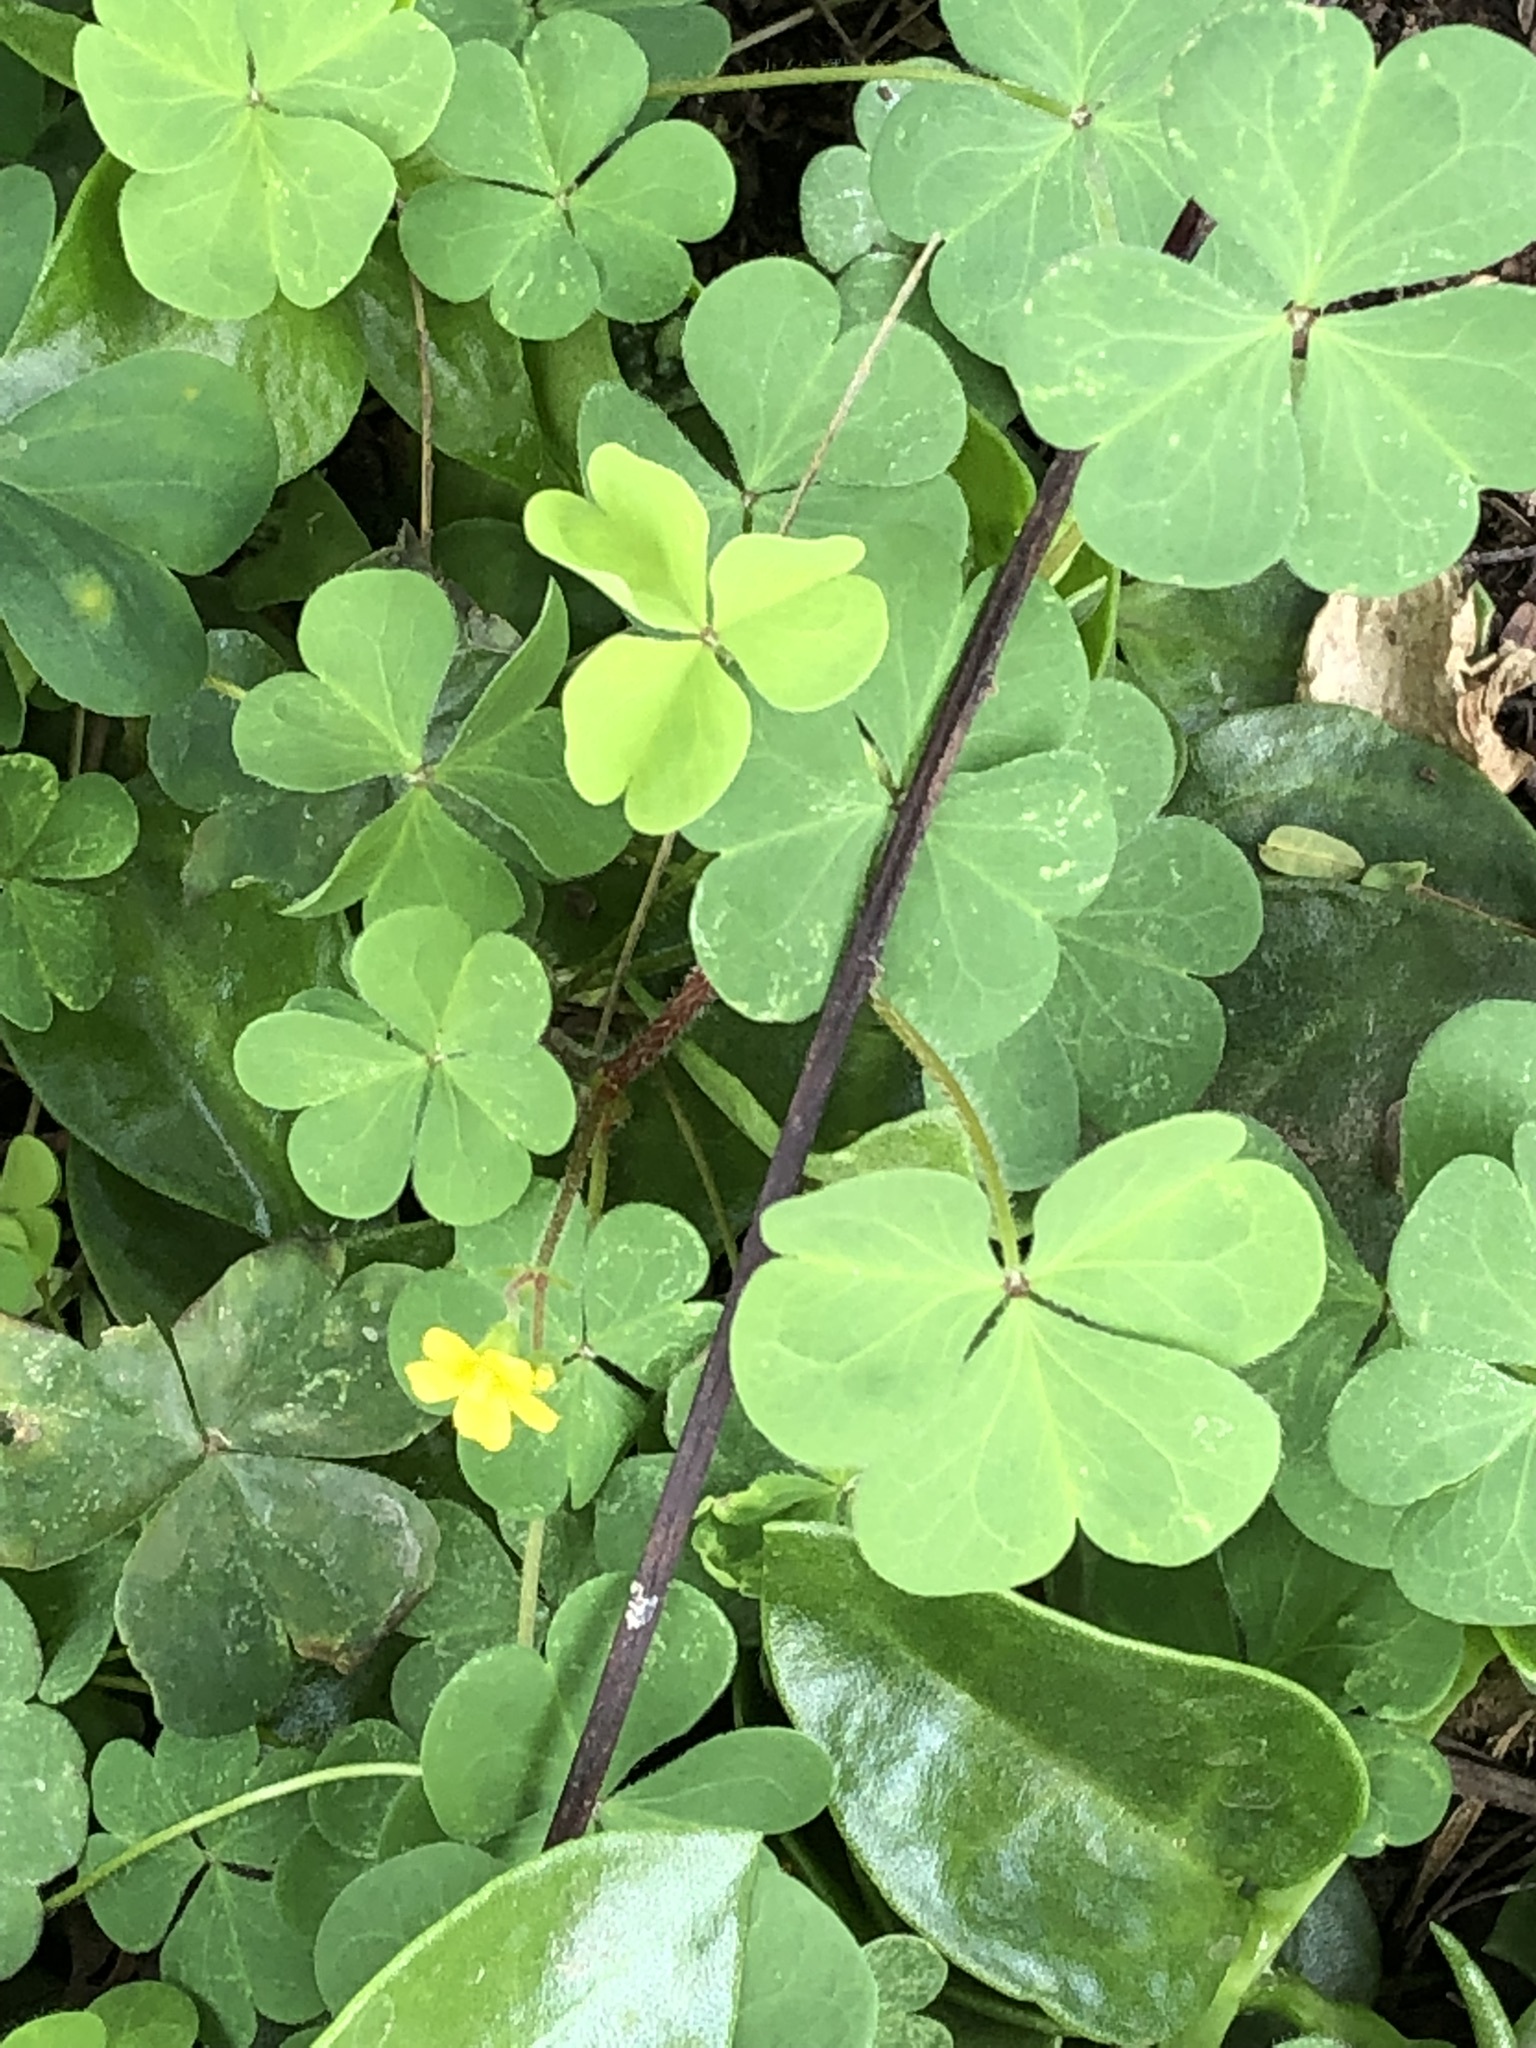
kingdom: Plantae
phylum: Tracheophyta
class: Magnoliopsida
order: Oxalidales
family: Oxalidaceae
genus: Oxalis
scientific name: Oxalis corniculata
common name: Procumbent yellow-sorrel
